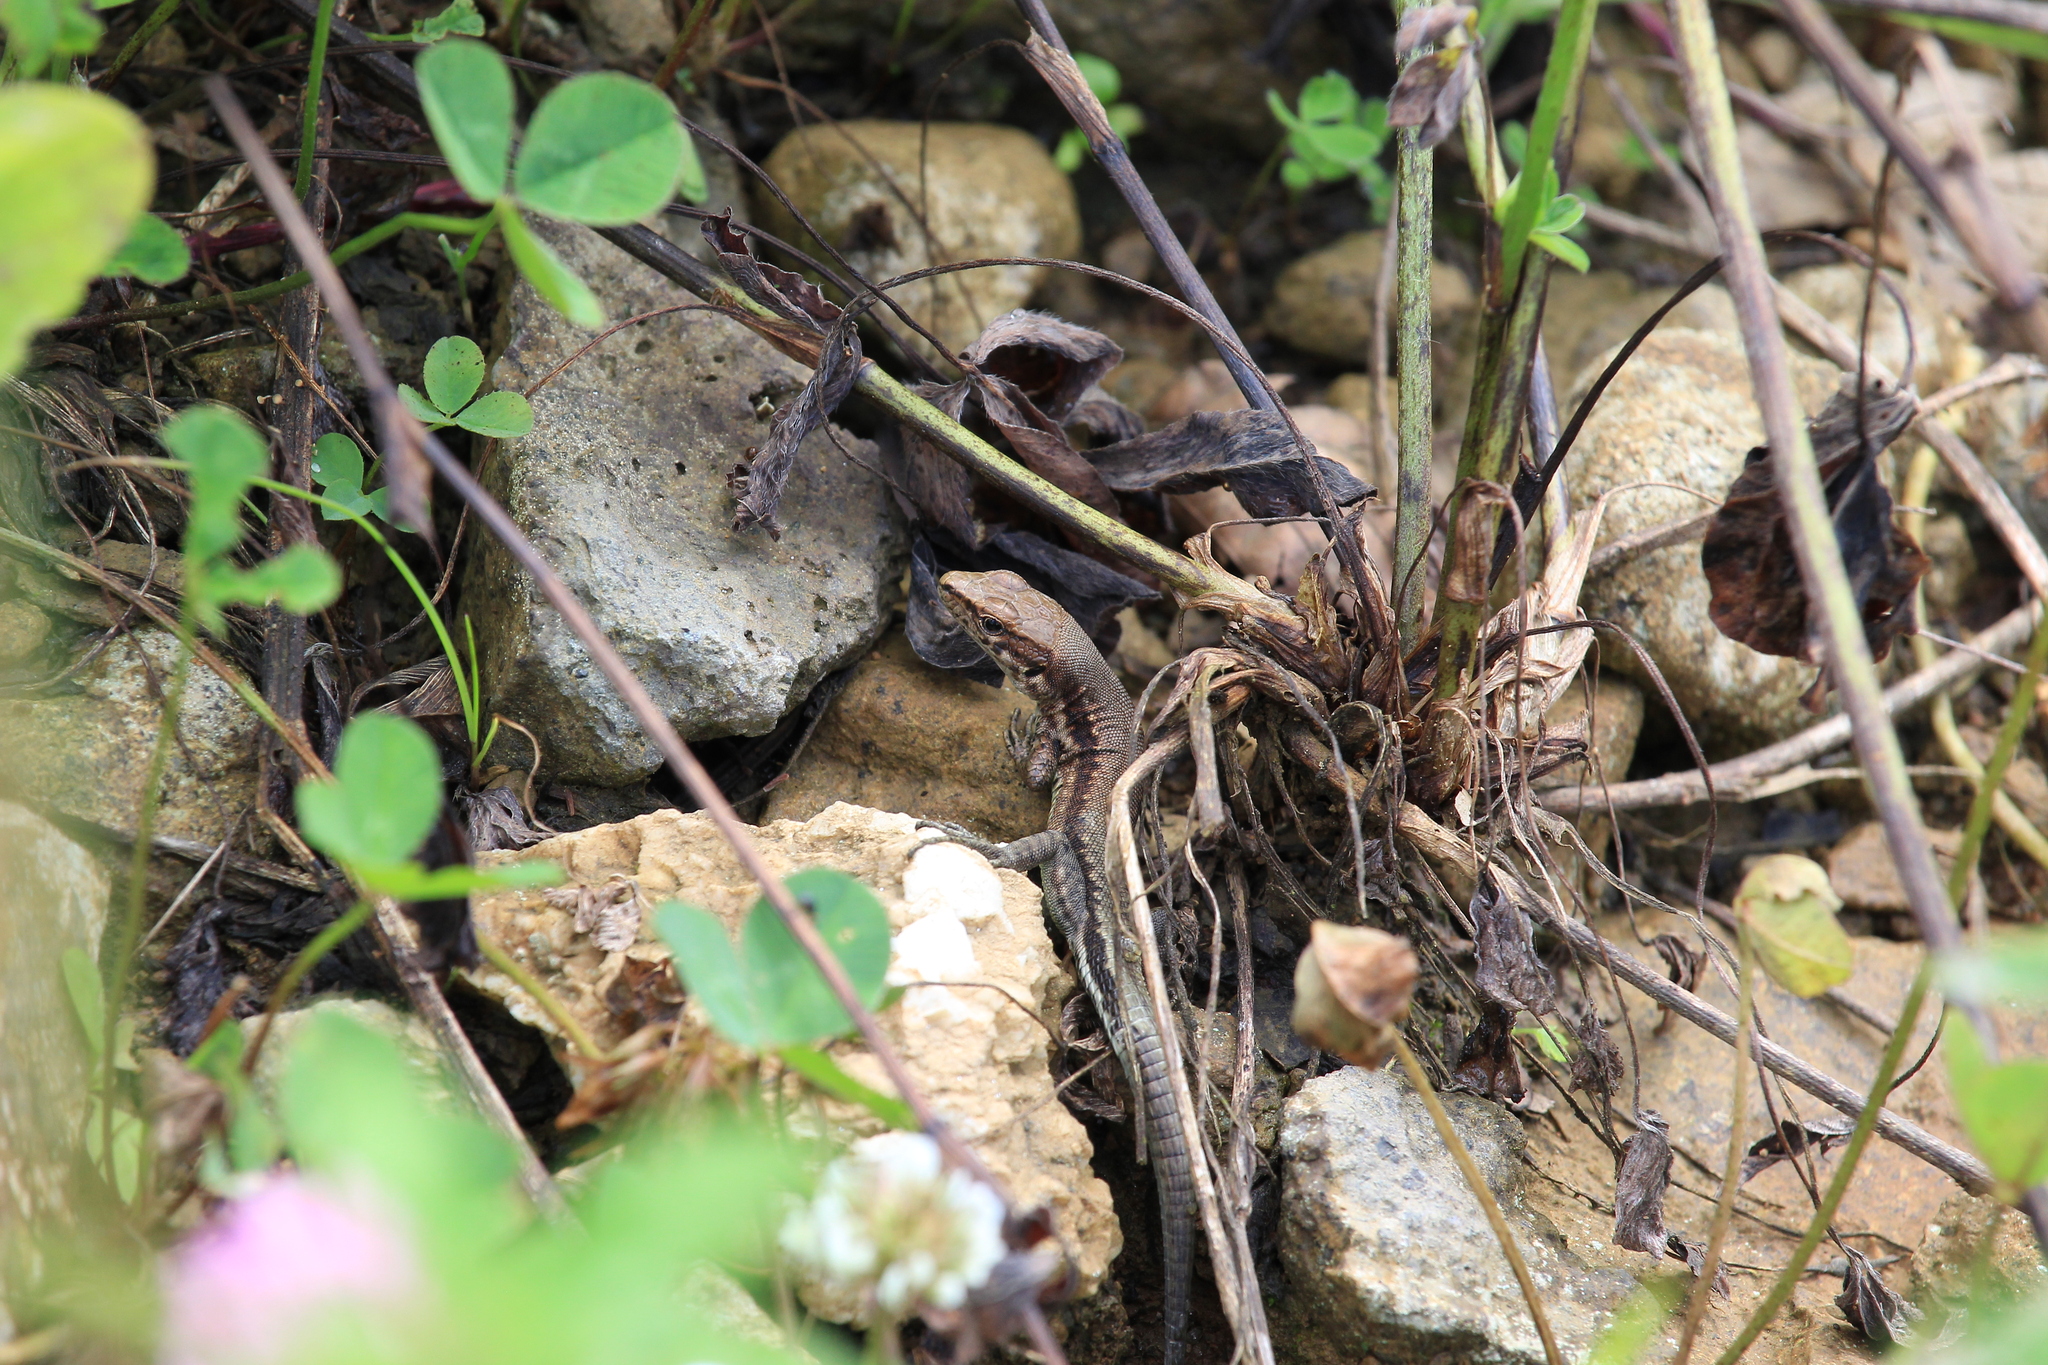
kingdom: Animalia
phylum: Chordata
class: Squamata
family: Lacertidae
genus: Darevskia
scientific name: Darevskia derjugini
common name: Derjugin's lizard
